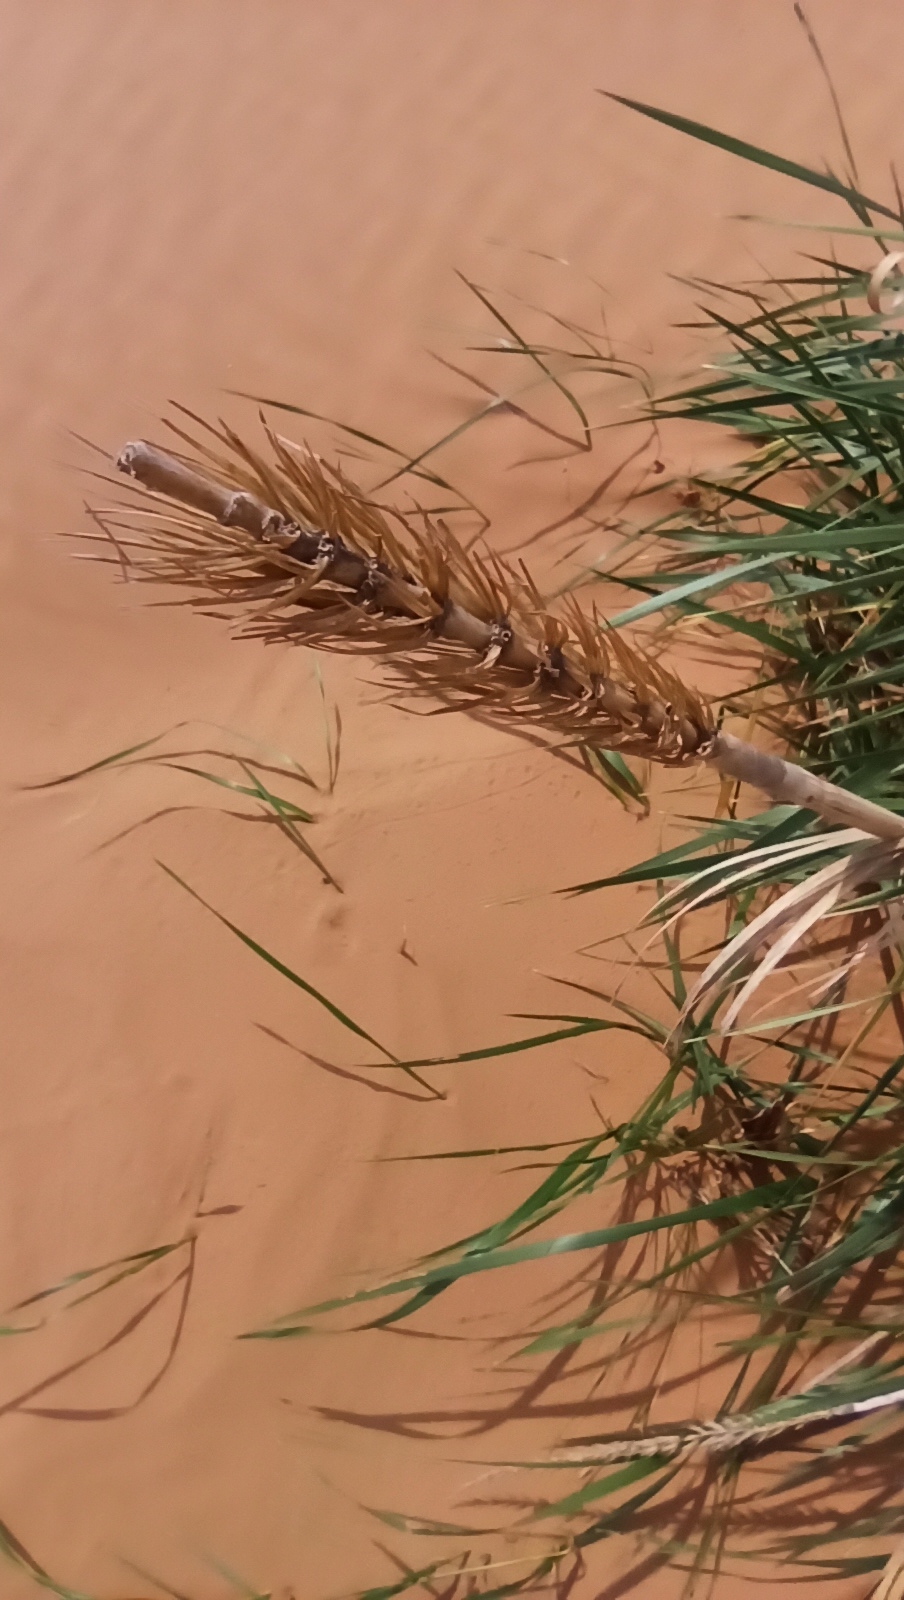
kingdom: Plantae
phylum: Tracheophyta
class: Liliopsida
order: Poales
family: Poaceae
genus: Leymus
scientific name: Leymus racemosus
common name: Mammoth wildrye
